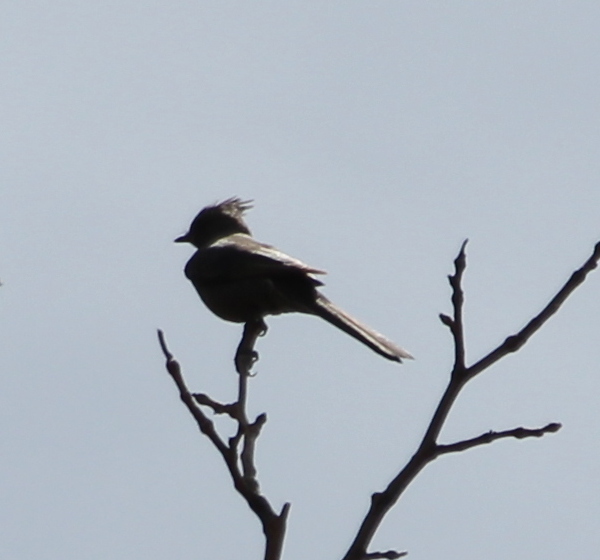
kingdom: Animalia
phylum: Chordata
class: Aves
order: Passeriformes
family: Ptilogonatidae
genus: Phainopepla
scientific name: Phainopepla nitens
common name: Phainopepla
